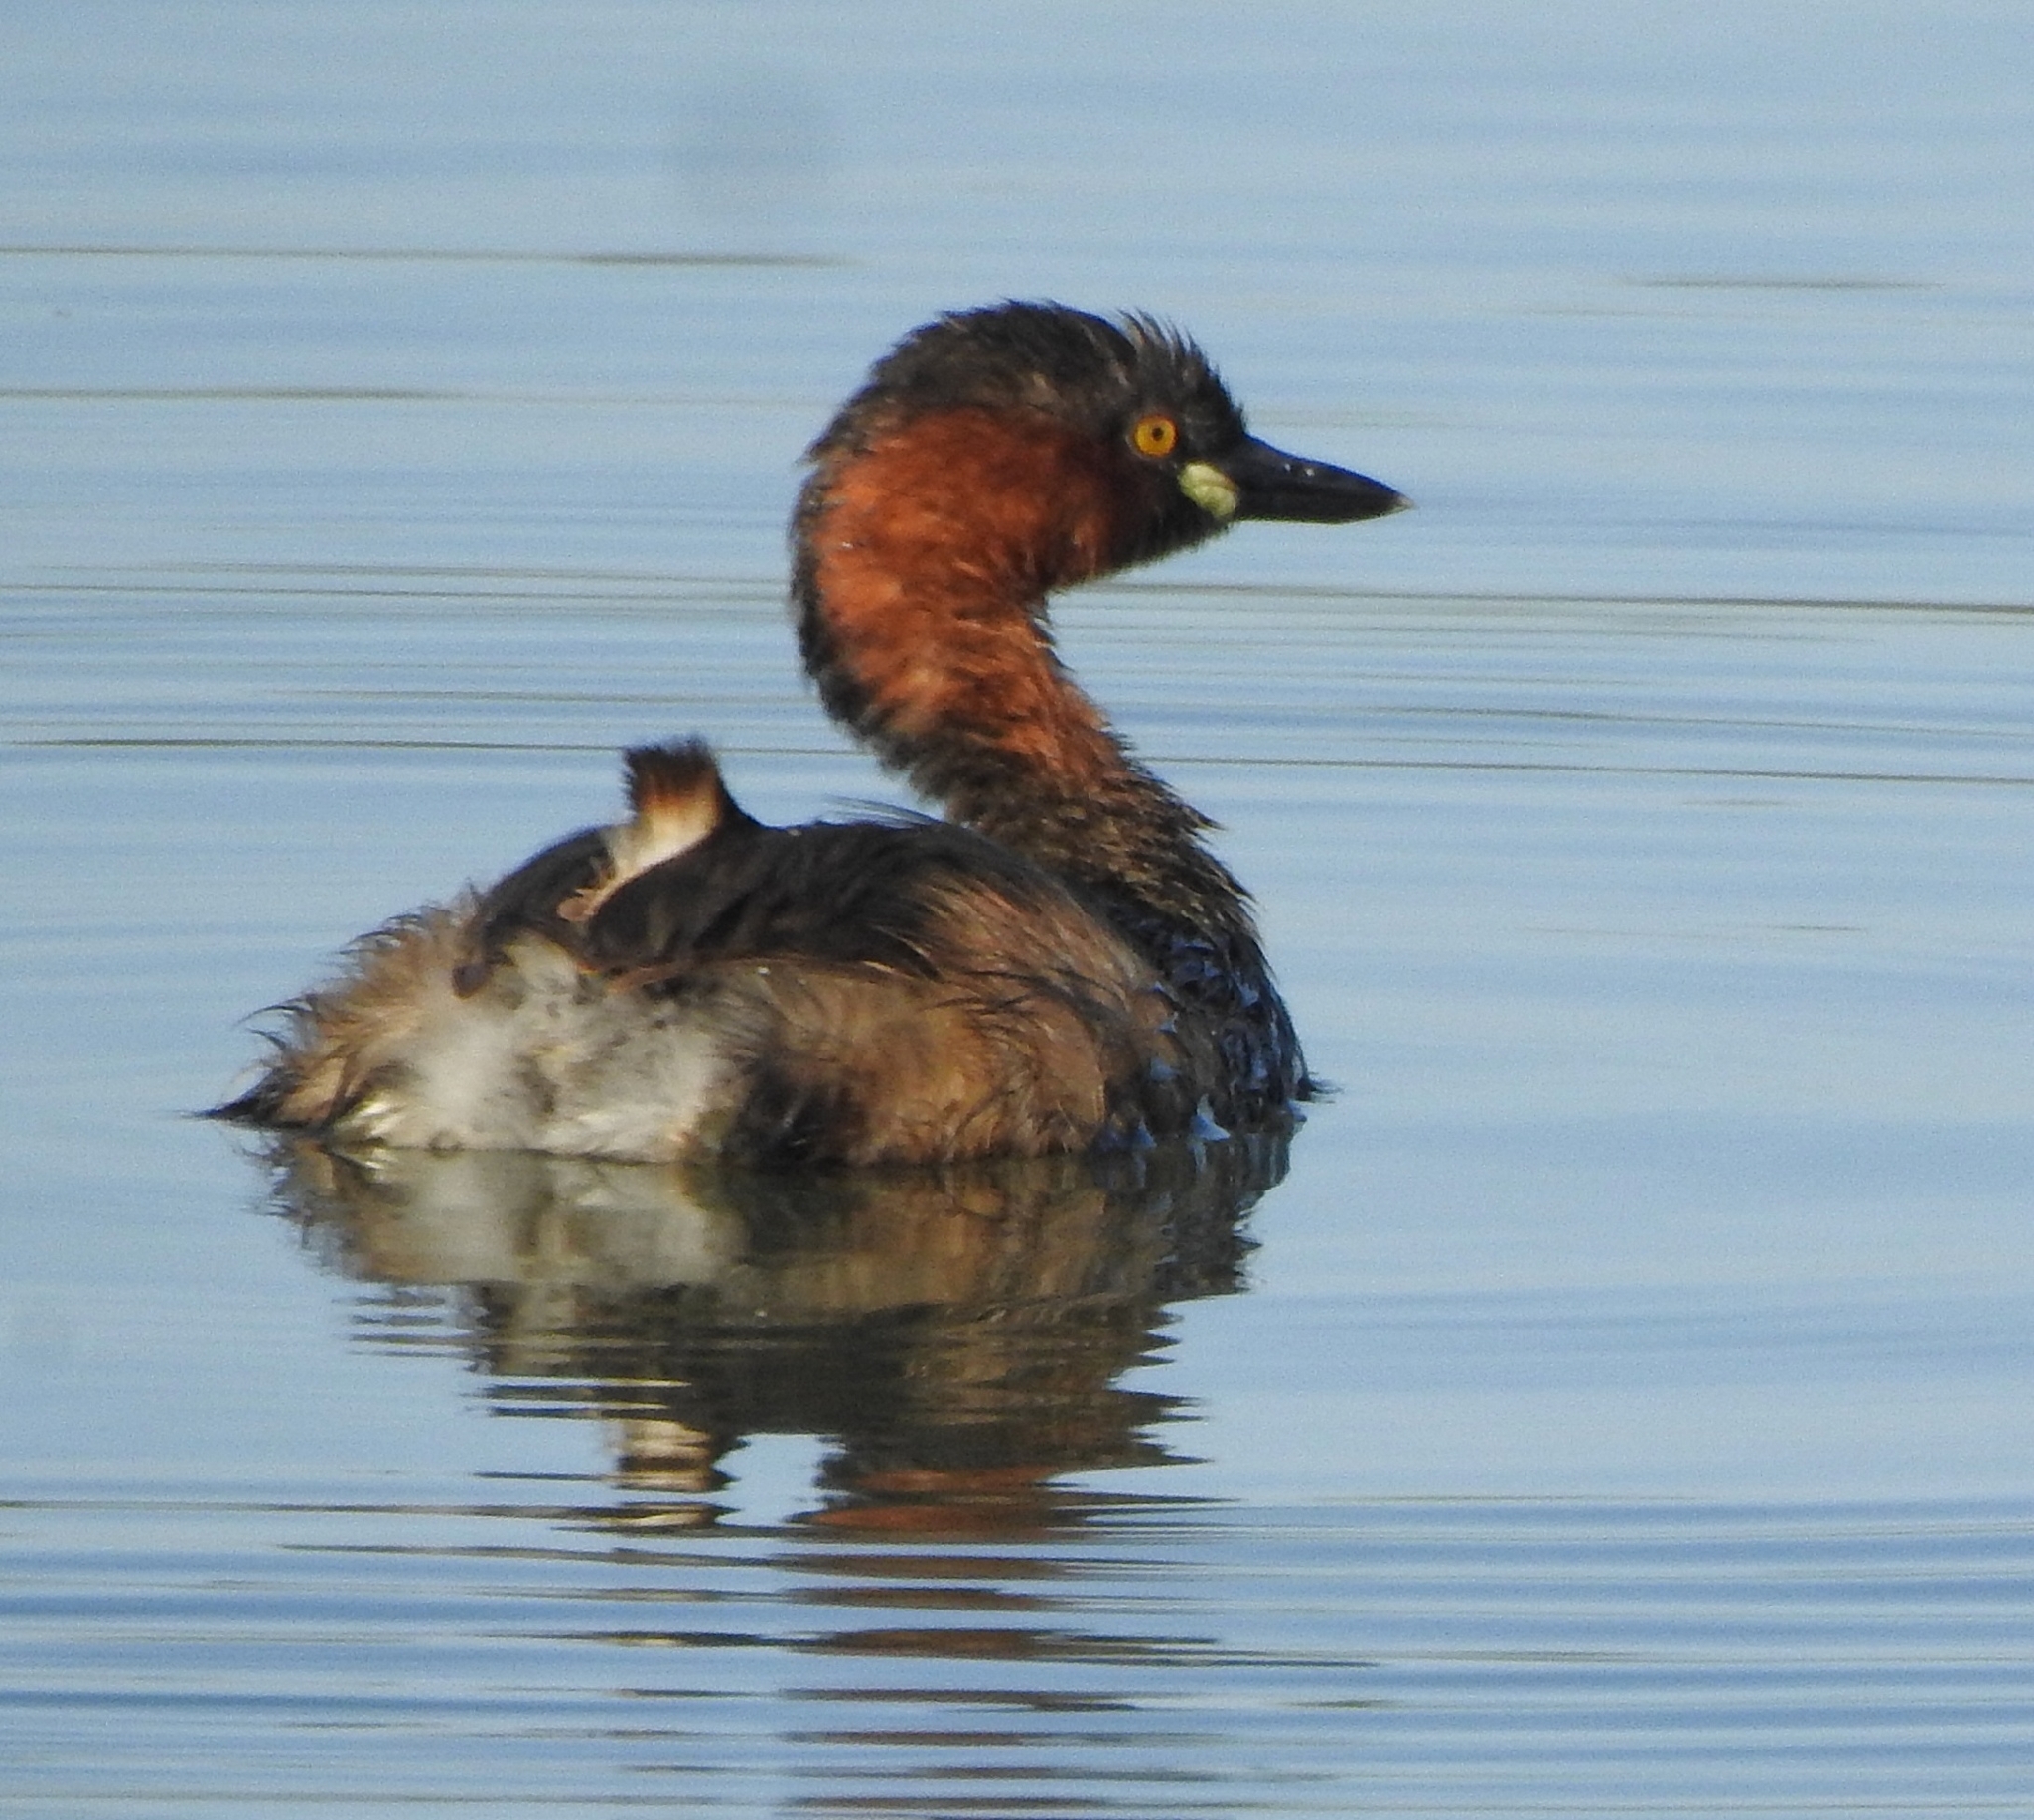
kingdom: Animalia
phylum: Chordata
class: Aves
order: Podicipediformes
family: Podicipedidae
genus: Tachybaptus
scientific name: Tachybaptus ruficollis
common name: Little grebe
